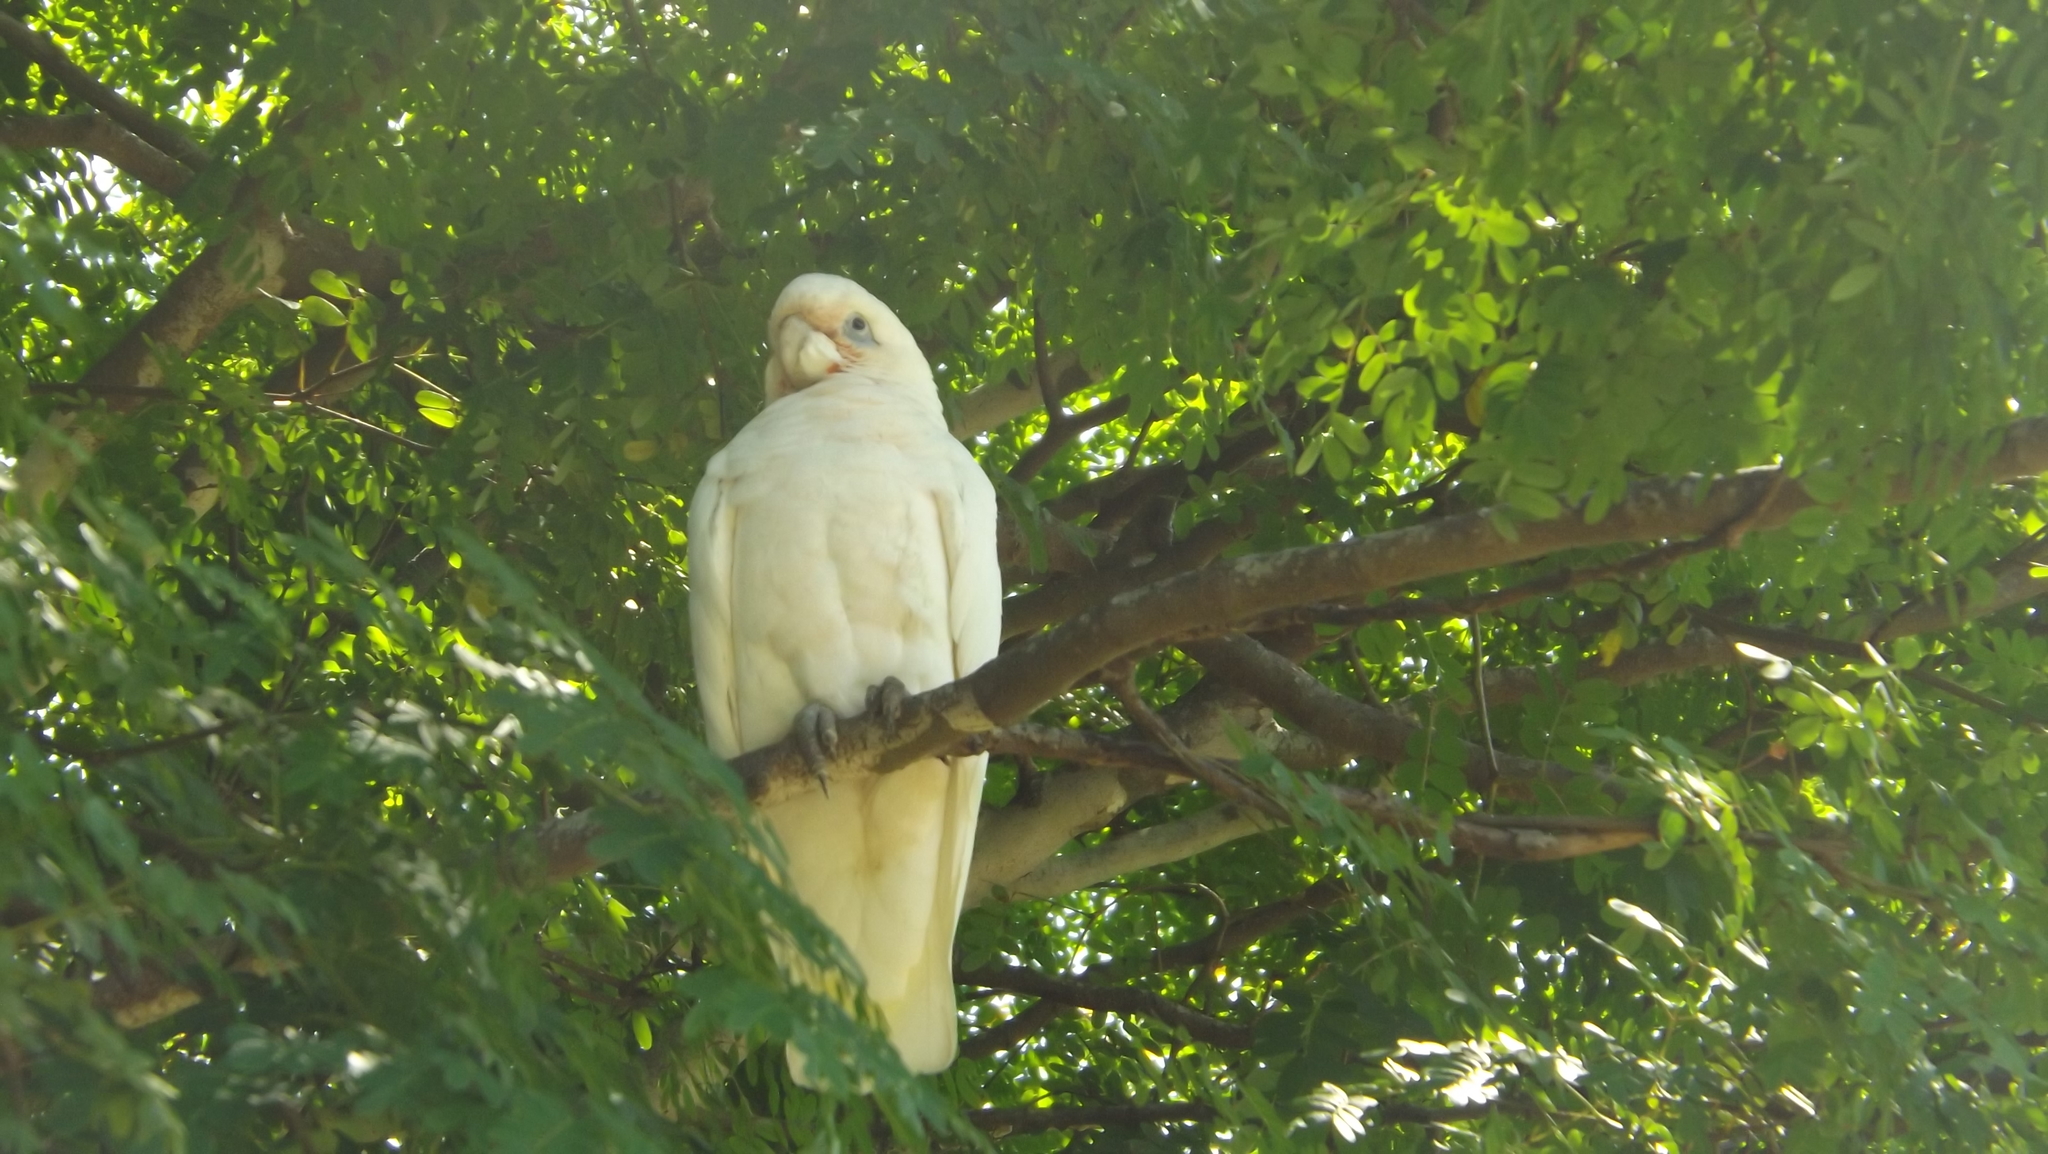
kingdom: Animalia
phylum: Chordata
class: Aves
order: Psittaciformes
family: Psittacidae
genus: Cacatua
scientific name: Cacatua sanguinea
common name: Little corella
